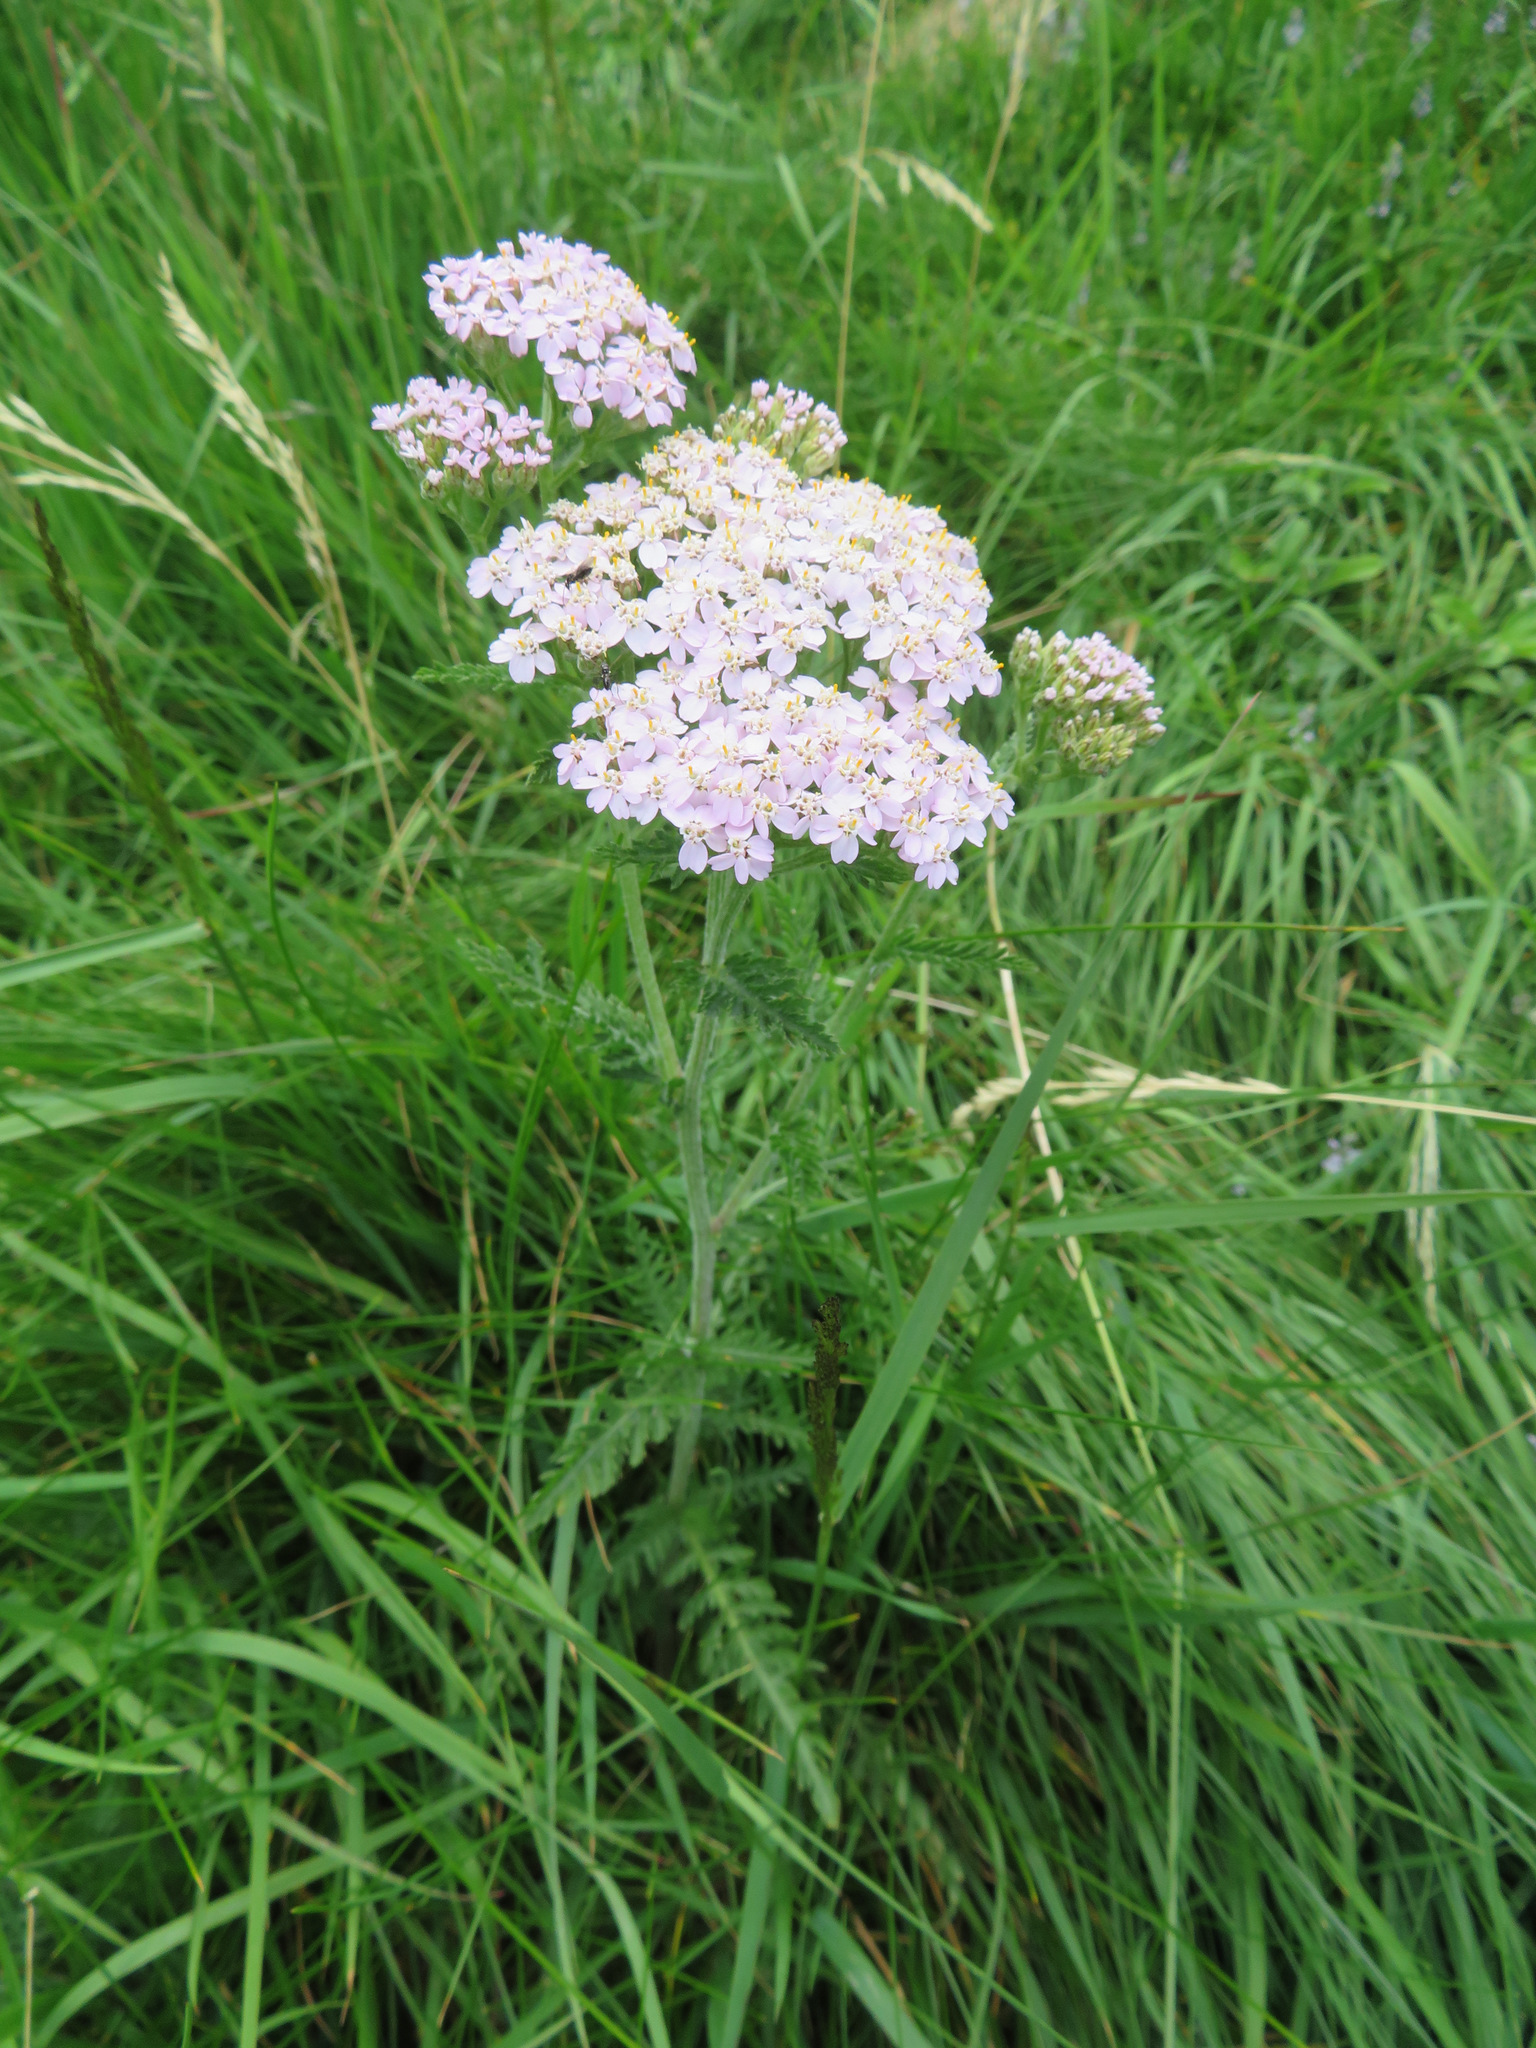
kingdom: Plantae
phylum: Tracheophyta
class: Magnoliopsida
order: Asterales
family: Asteraceae
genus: Achillea
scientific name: Achillea millefolium
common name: Yarrow
